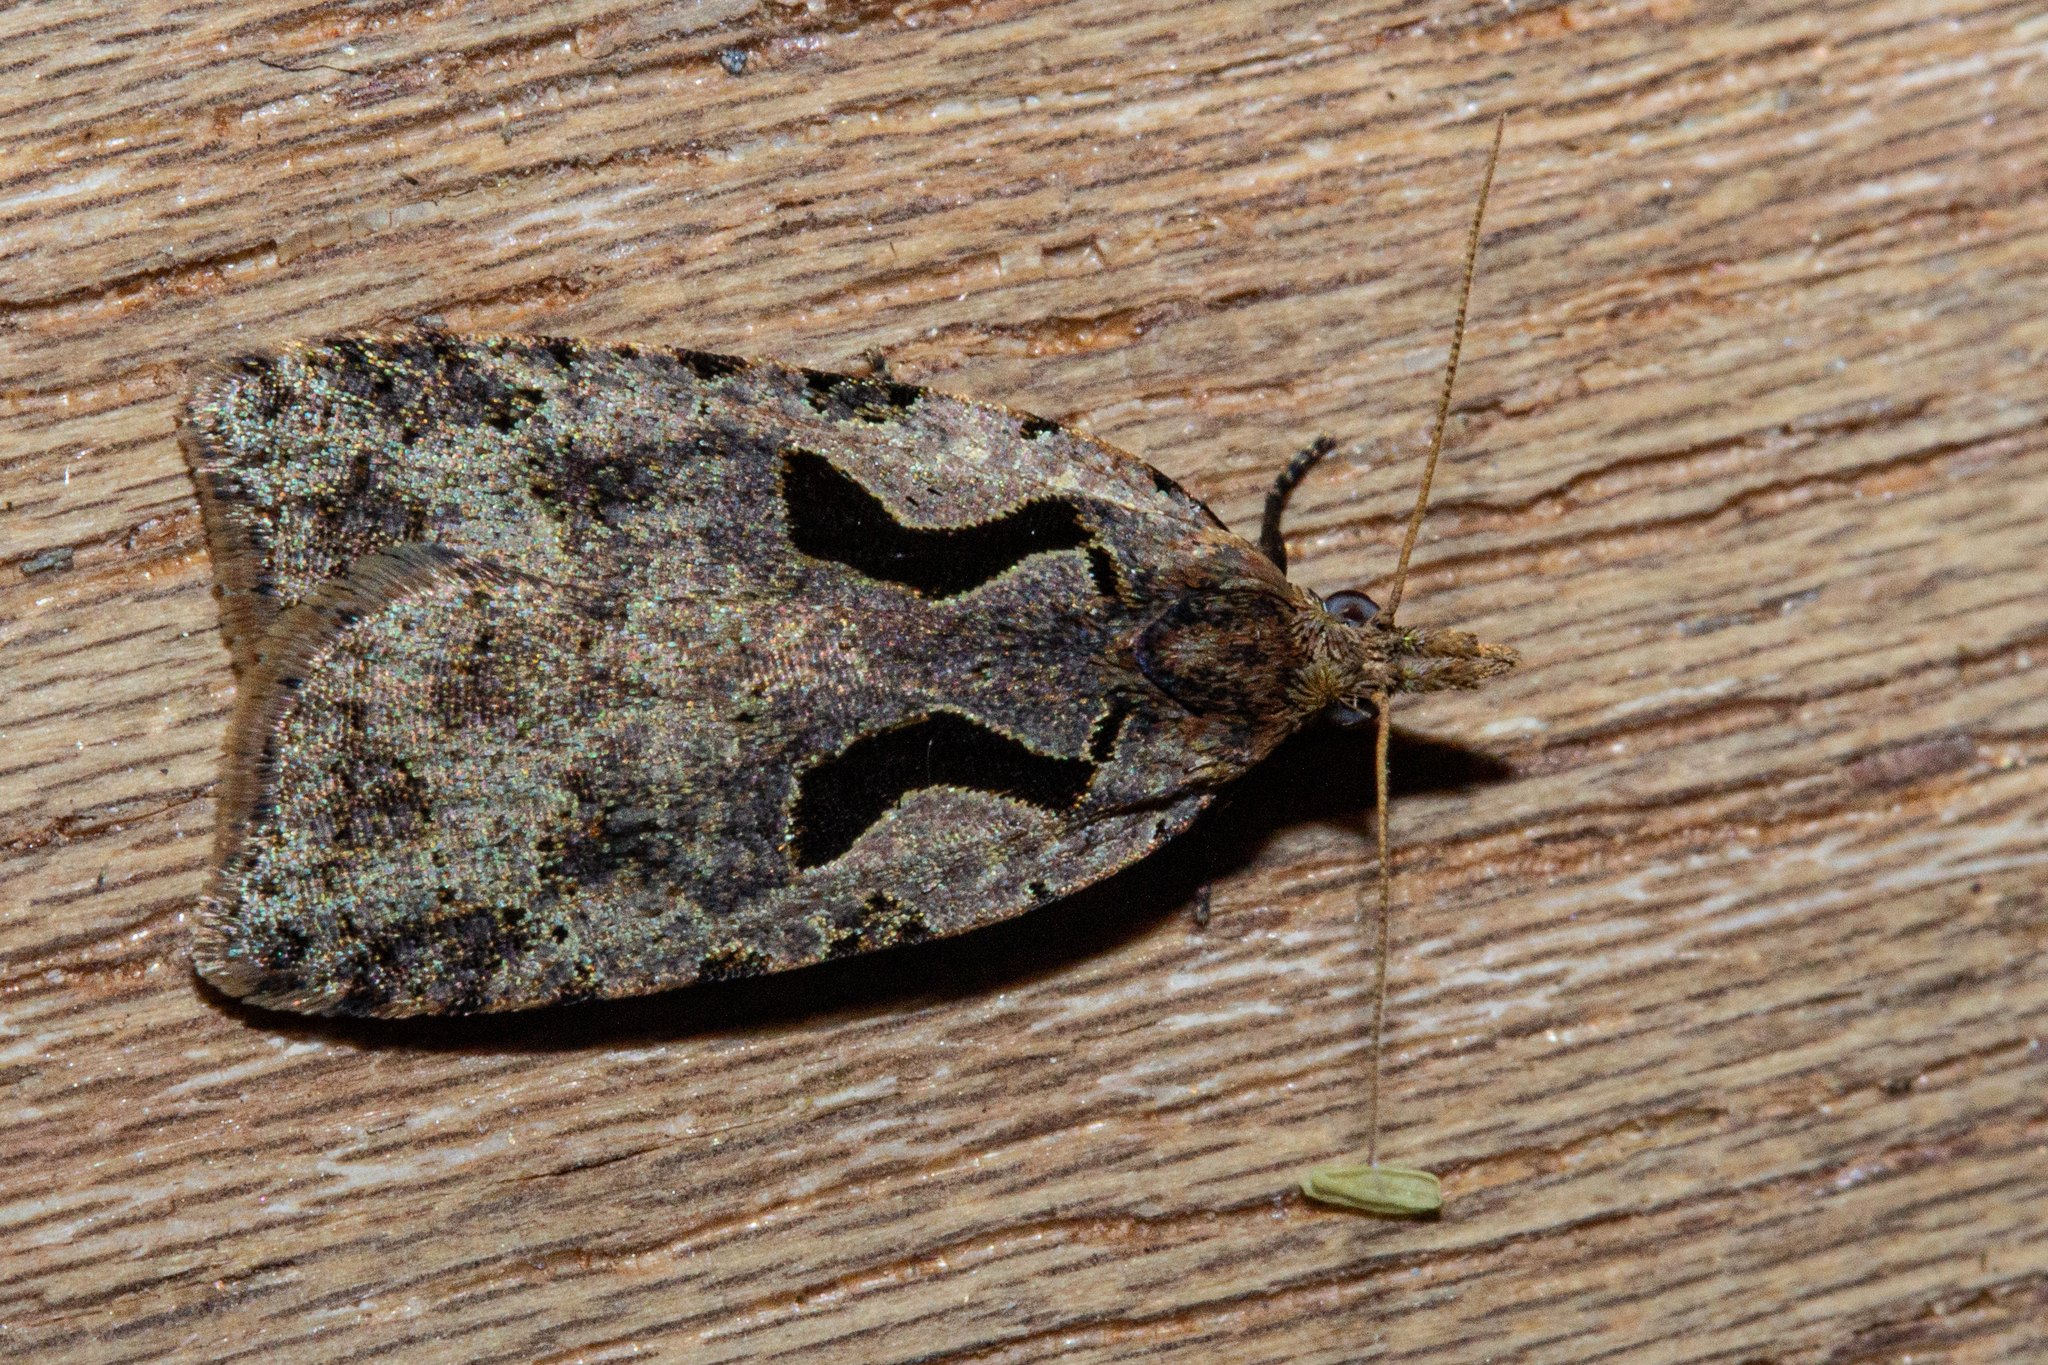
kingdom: Animalia
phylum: Arthropoda
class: Insecta
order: Lepidoptera
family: Tortricidae
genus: Cnephasia
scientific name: Cnephasia jactatana
